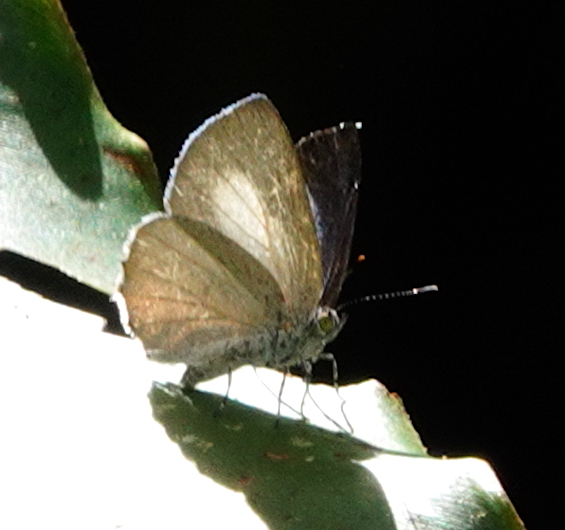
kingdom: Animalia
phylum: Arthropoda
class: Insecta
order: Lepidoptera
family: Lycaenidae
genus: Philiris
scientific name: Philiris ilias
